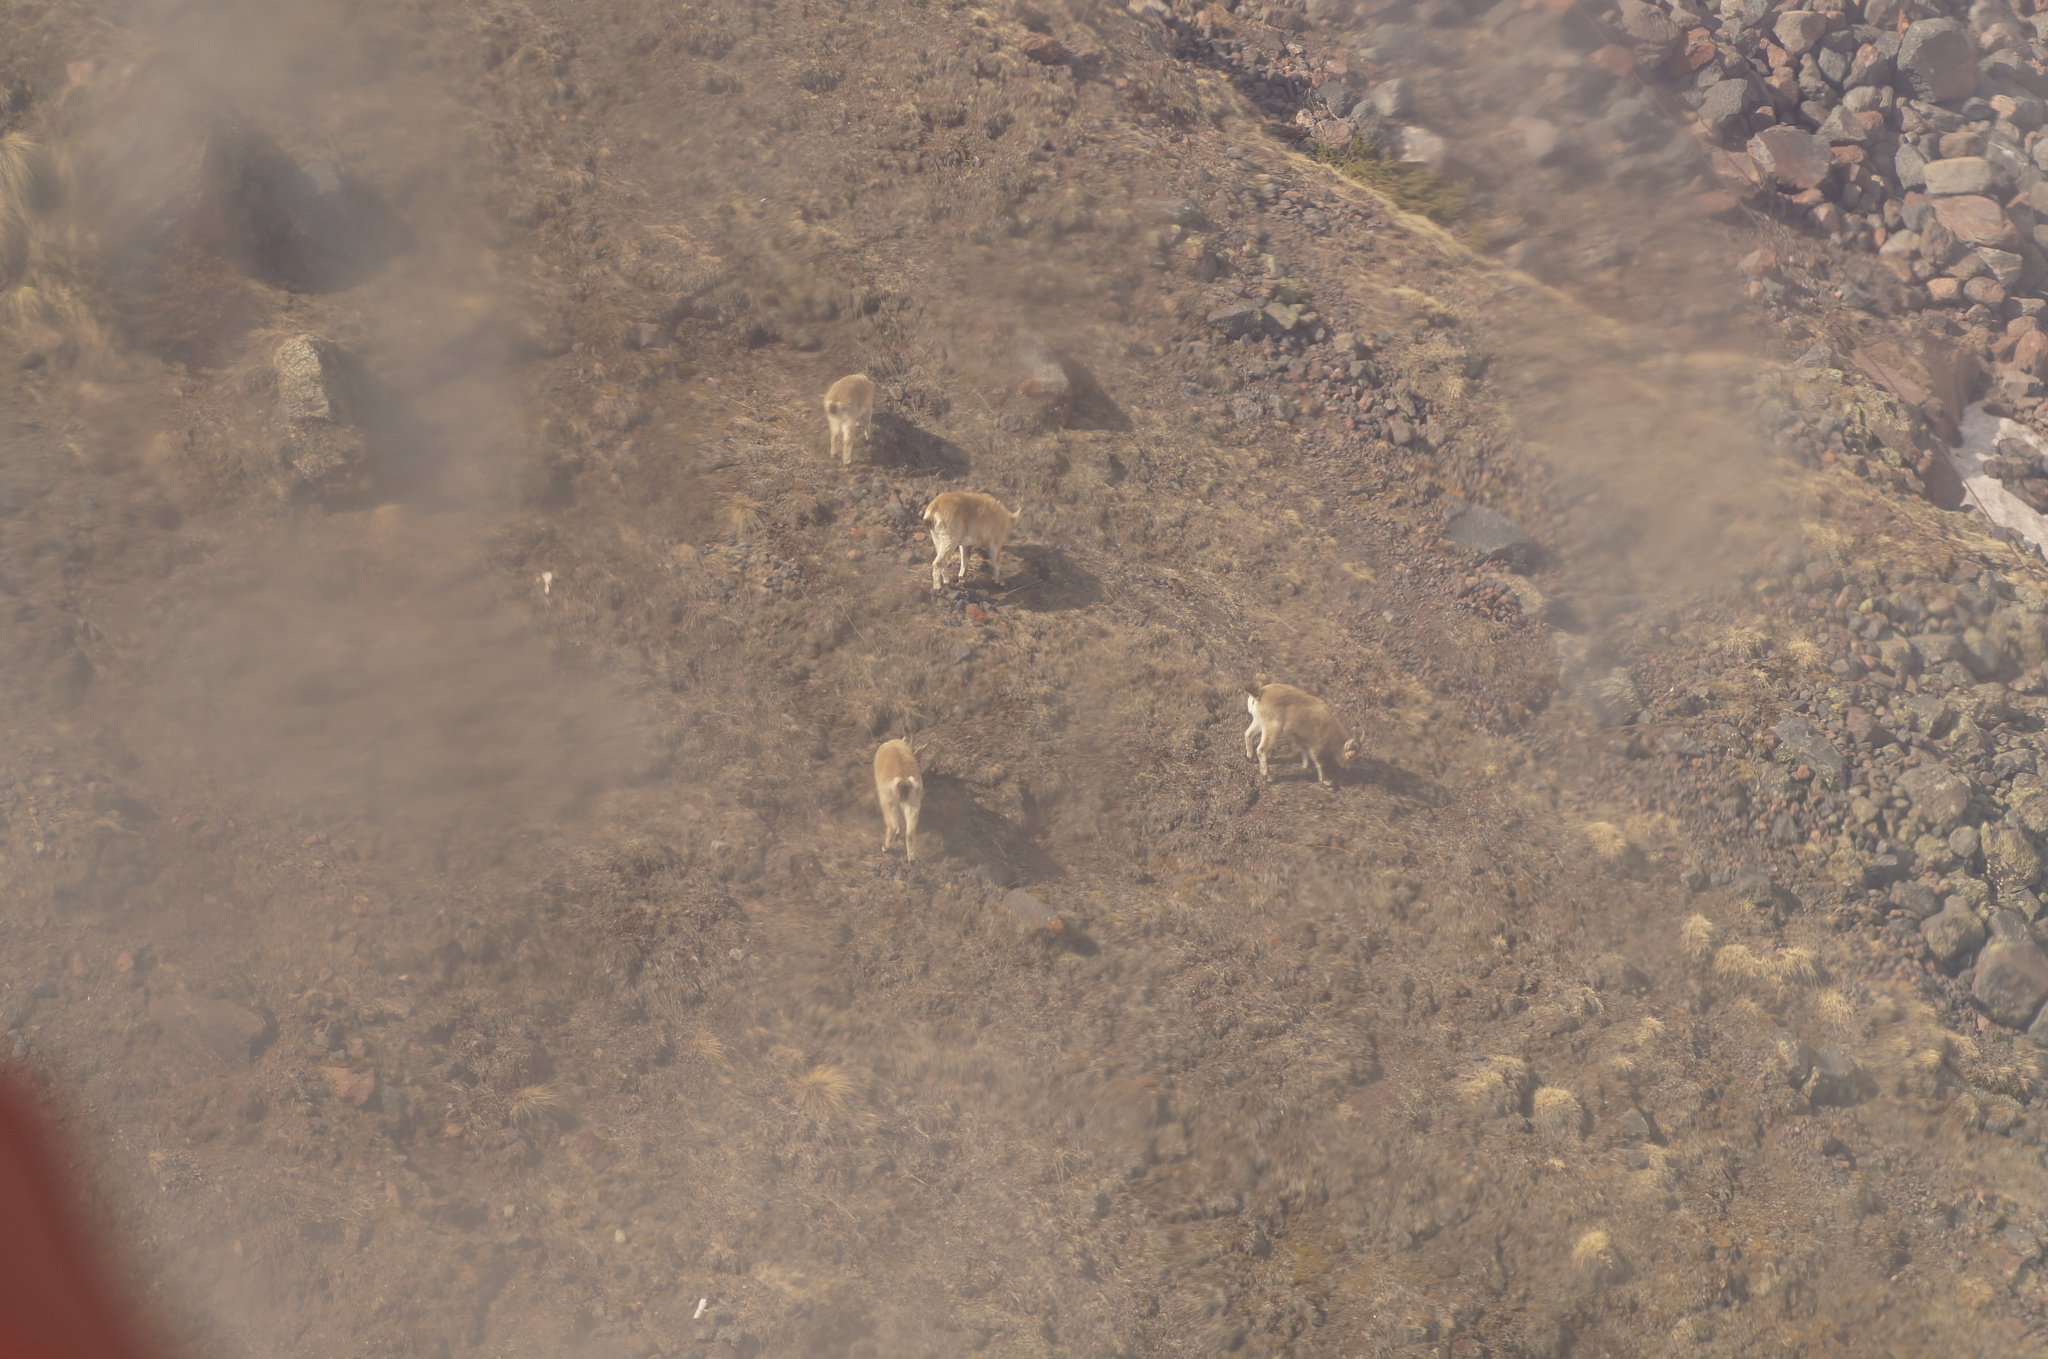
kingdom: Animalia
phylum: Chordata
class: Mammalia
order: Artiodactyla
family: Bovidae
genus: Capra
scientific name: Capra caucasica
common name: Tur
